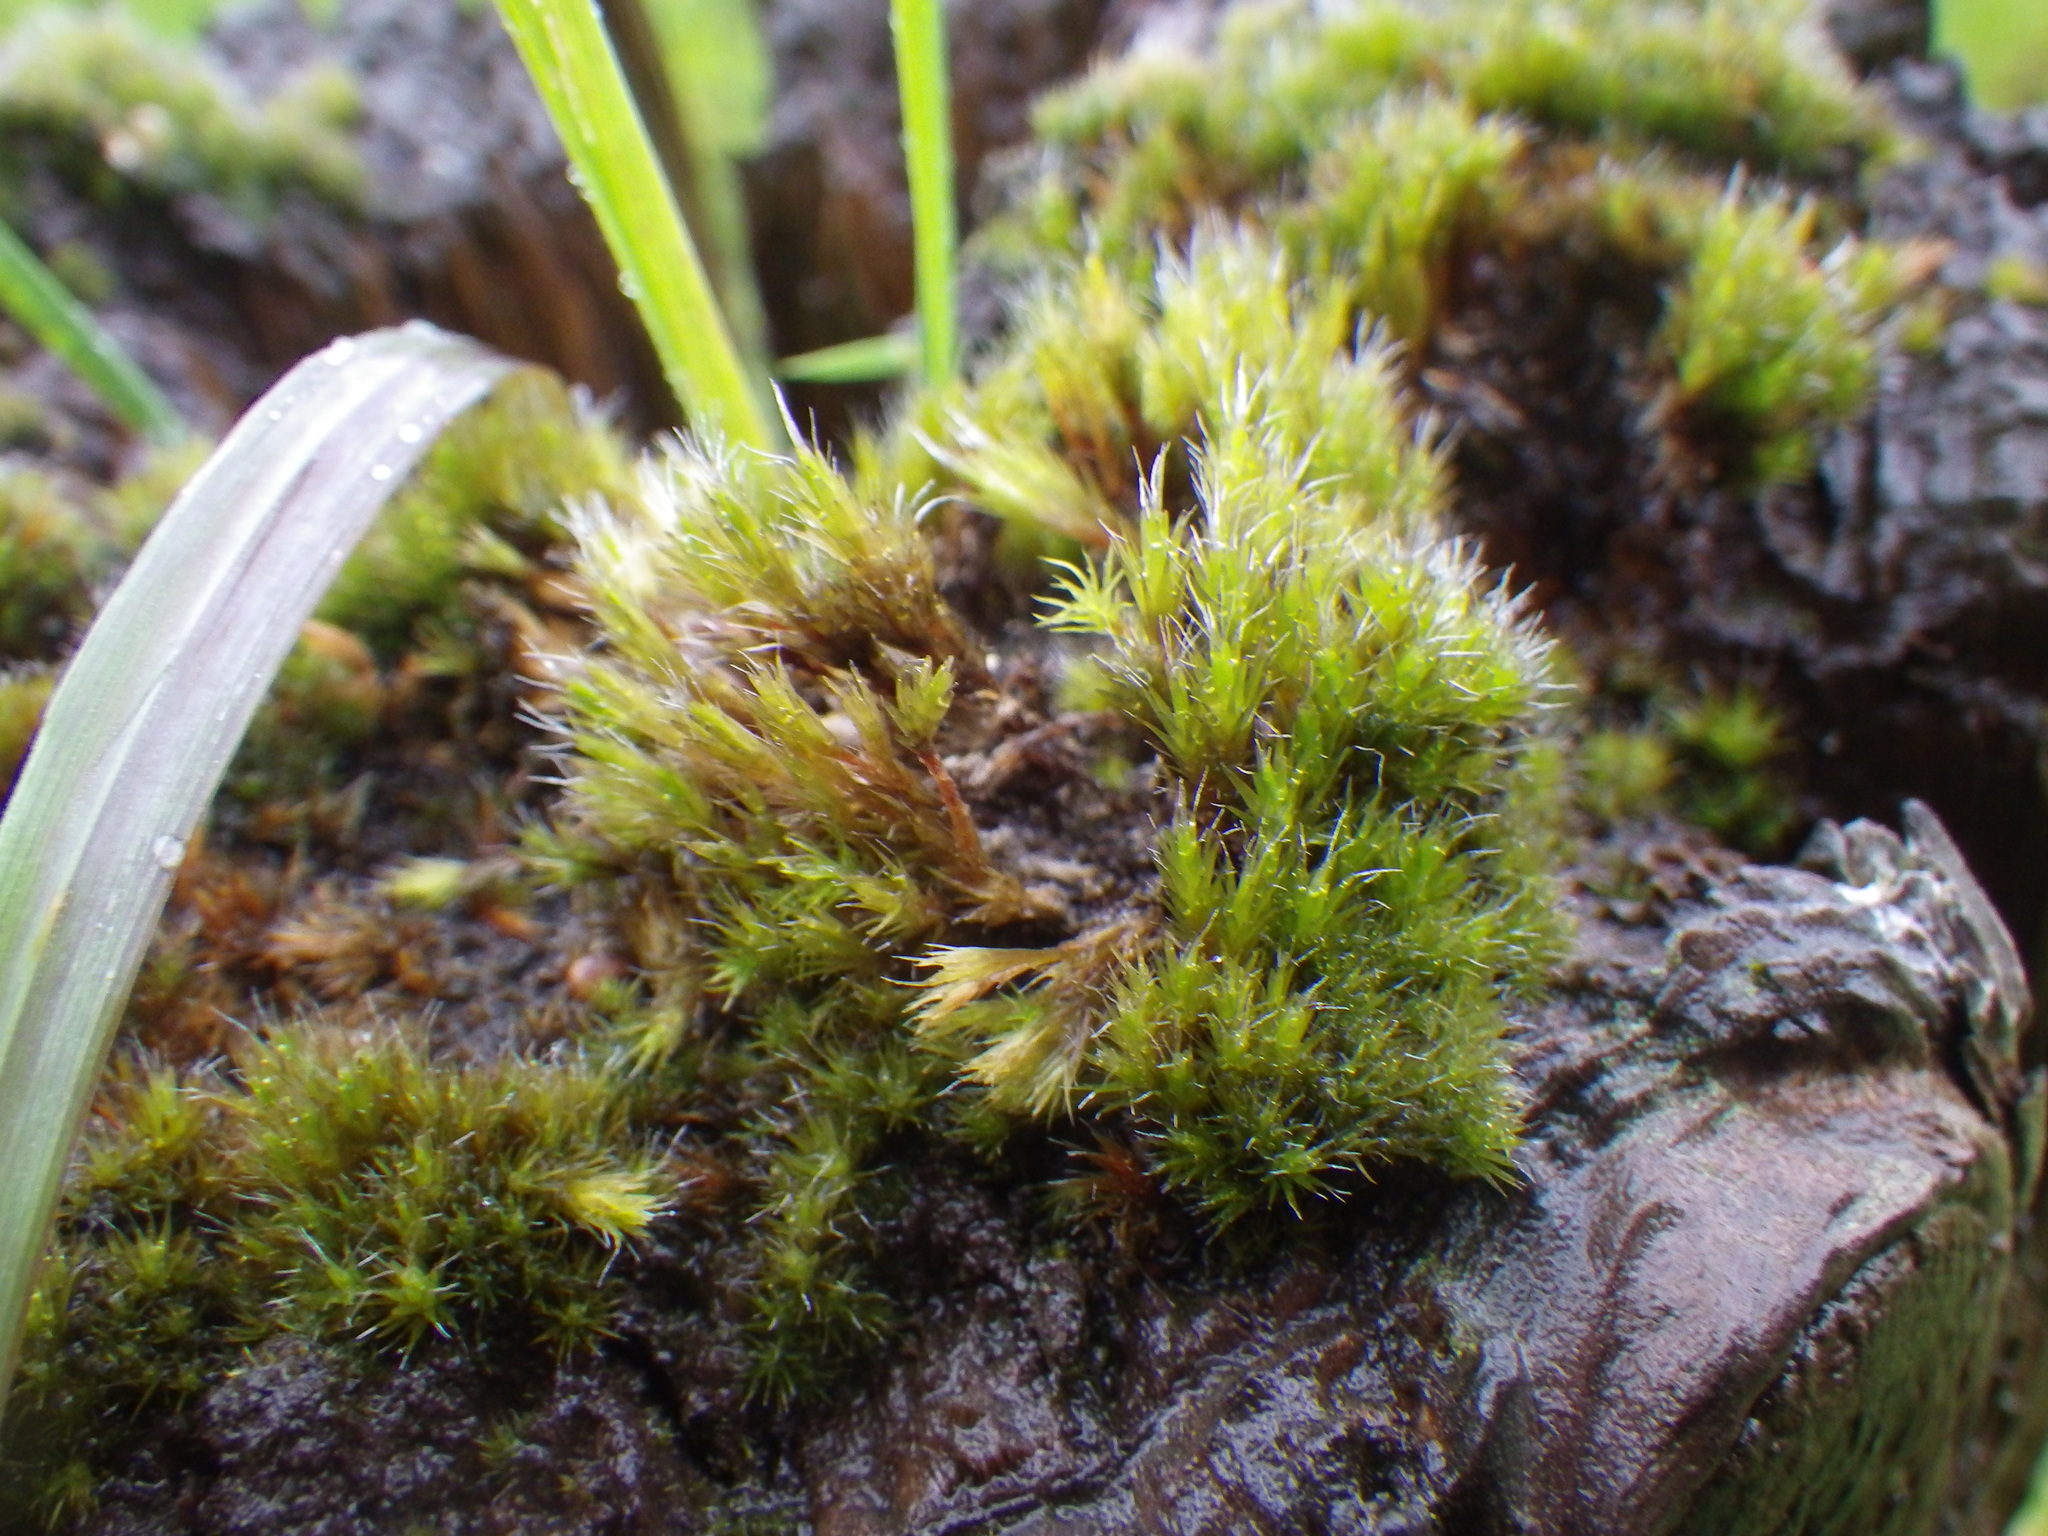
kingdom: Plantae
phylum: Bryophyta
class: Bryopsida
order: Dicranales
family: Leucobryaceae
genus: Campylopus
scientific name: Campylopus introflexus
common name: Heath star moss
